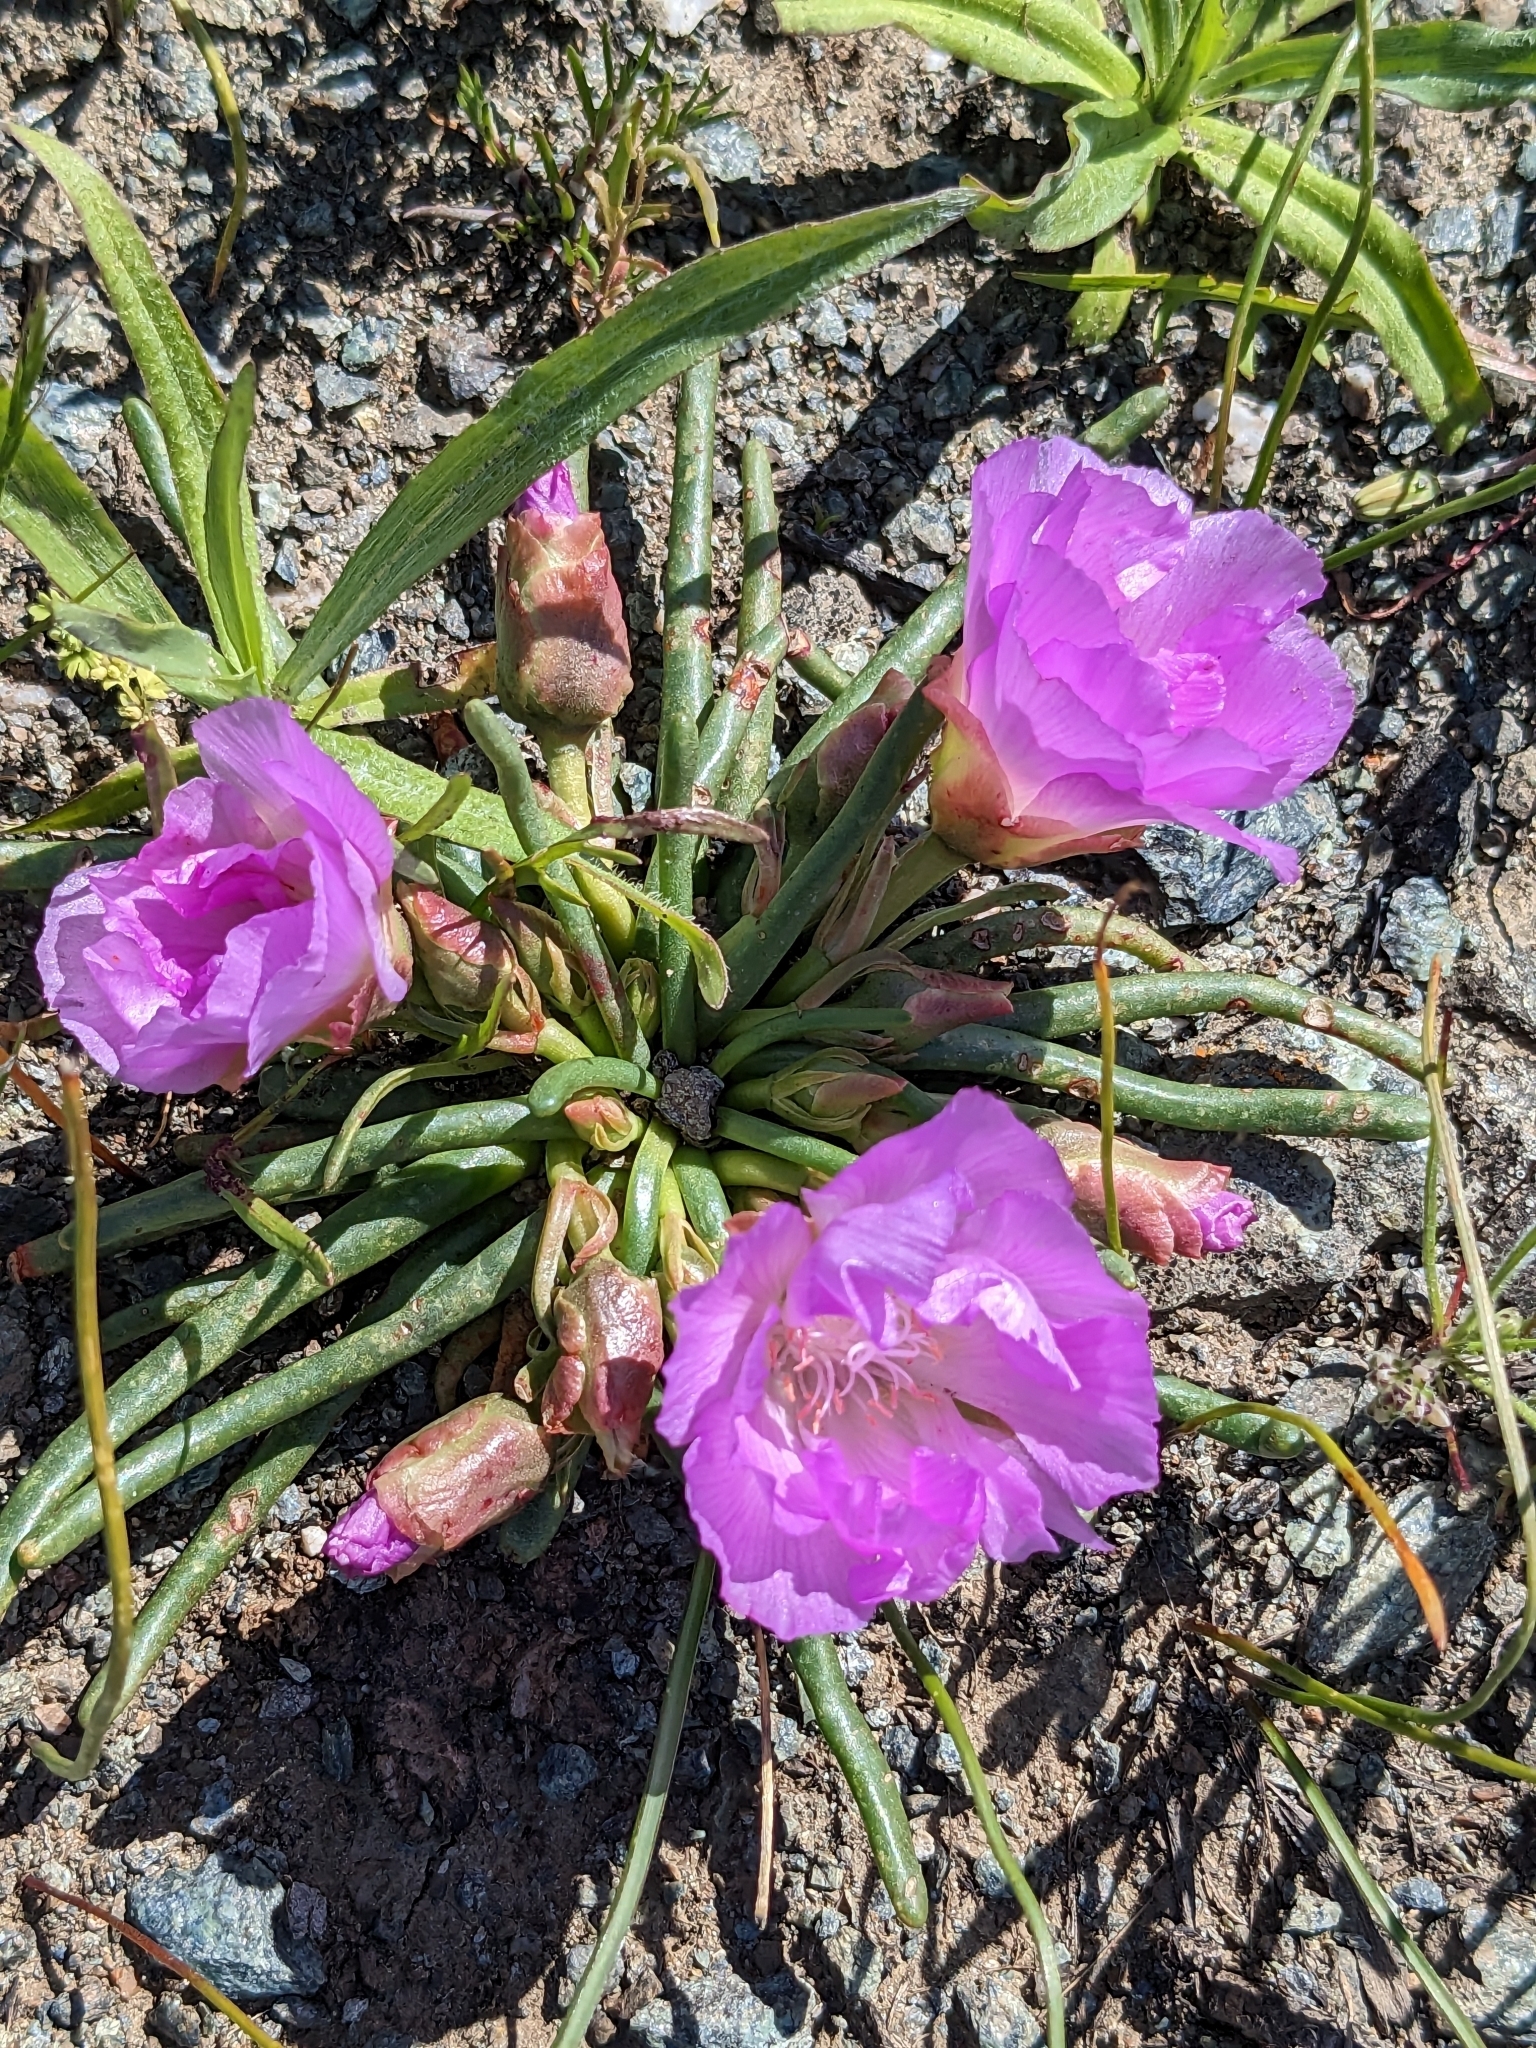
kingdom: Plantae
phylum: Tracheophyta
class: Magnoliopsida
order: Caryophyllales
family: Montiaceae
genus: Lewisia
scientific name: Lewisia rediviva
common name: Bitter-root
